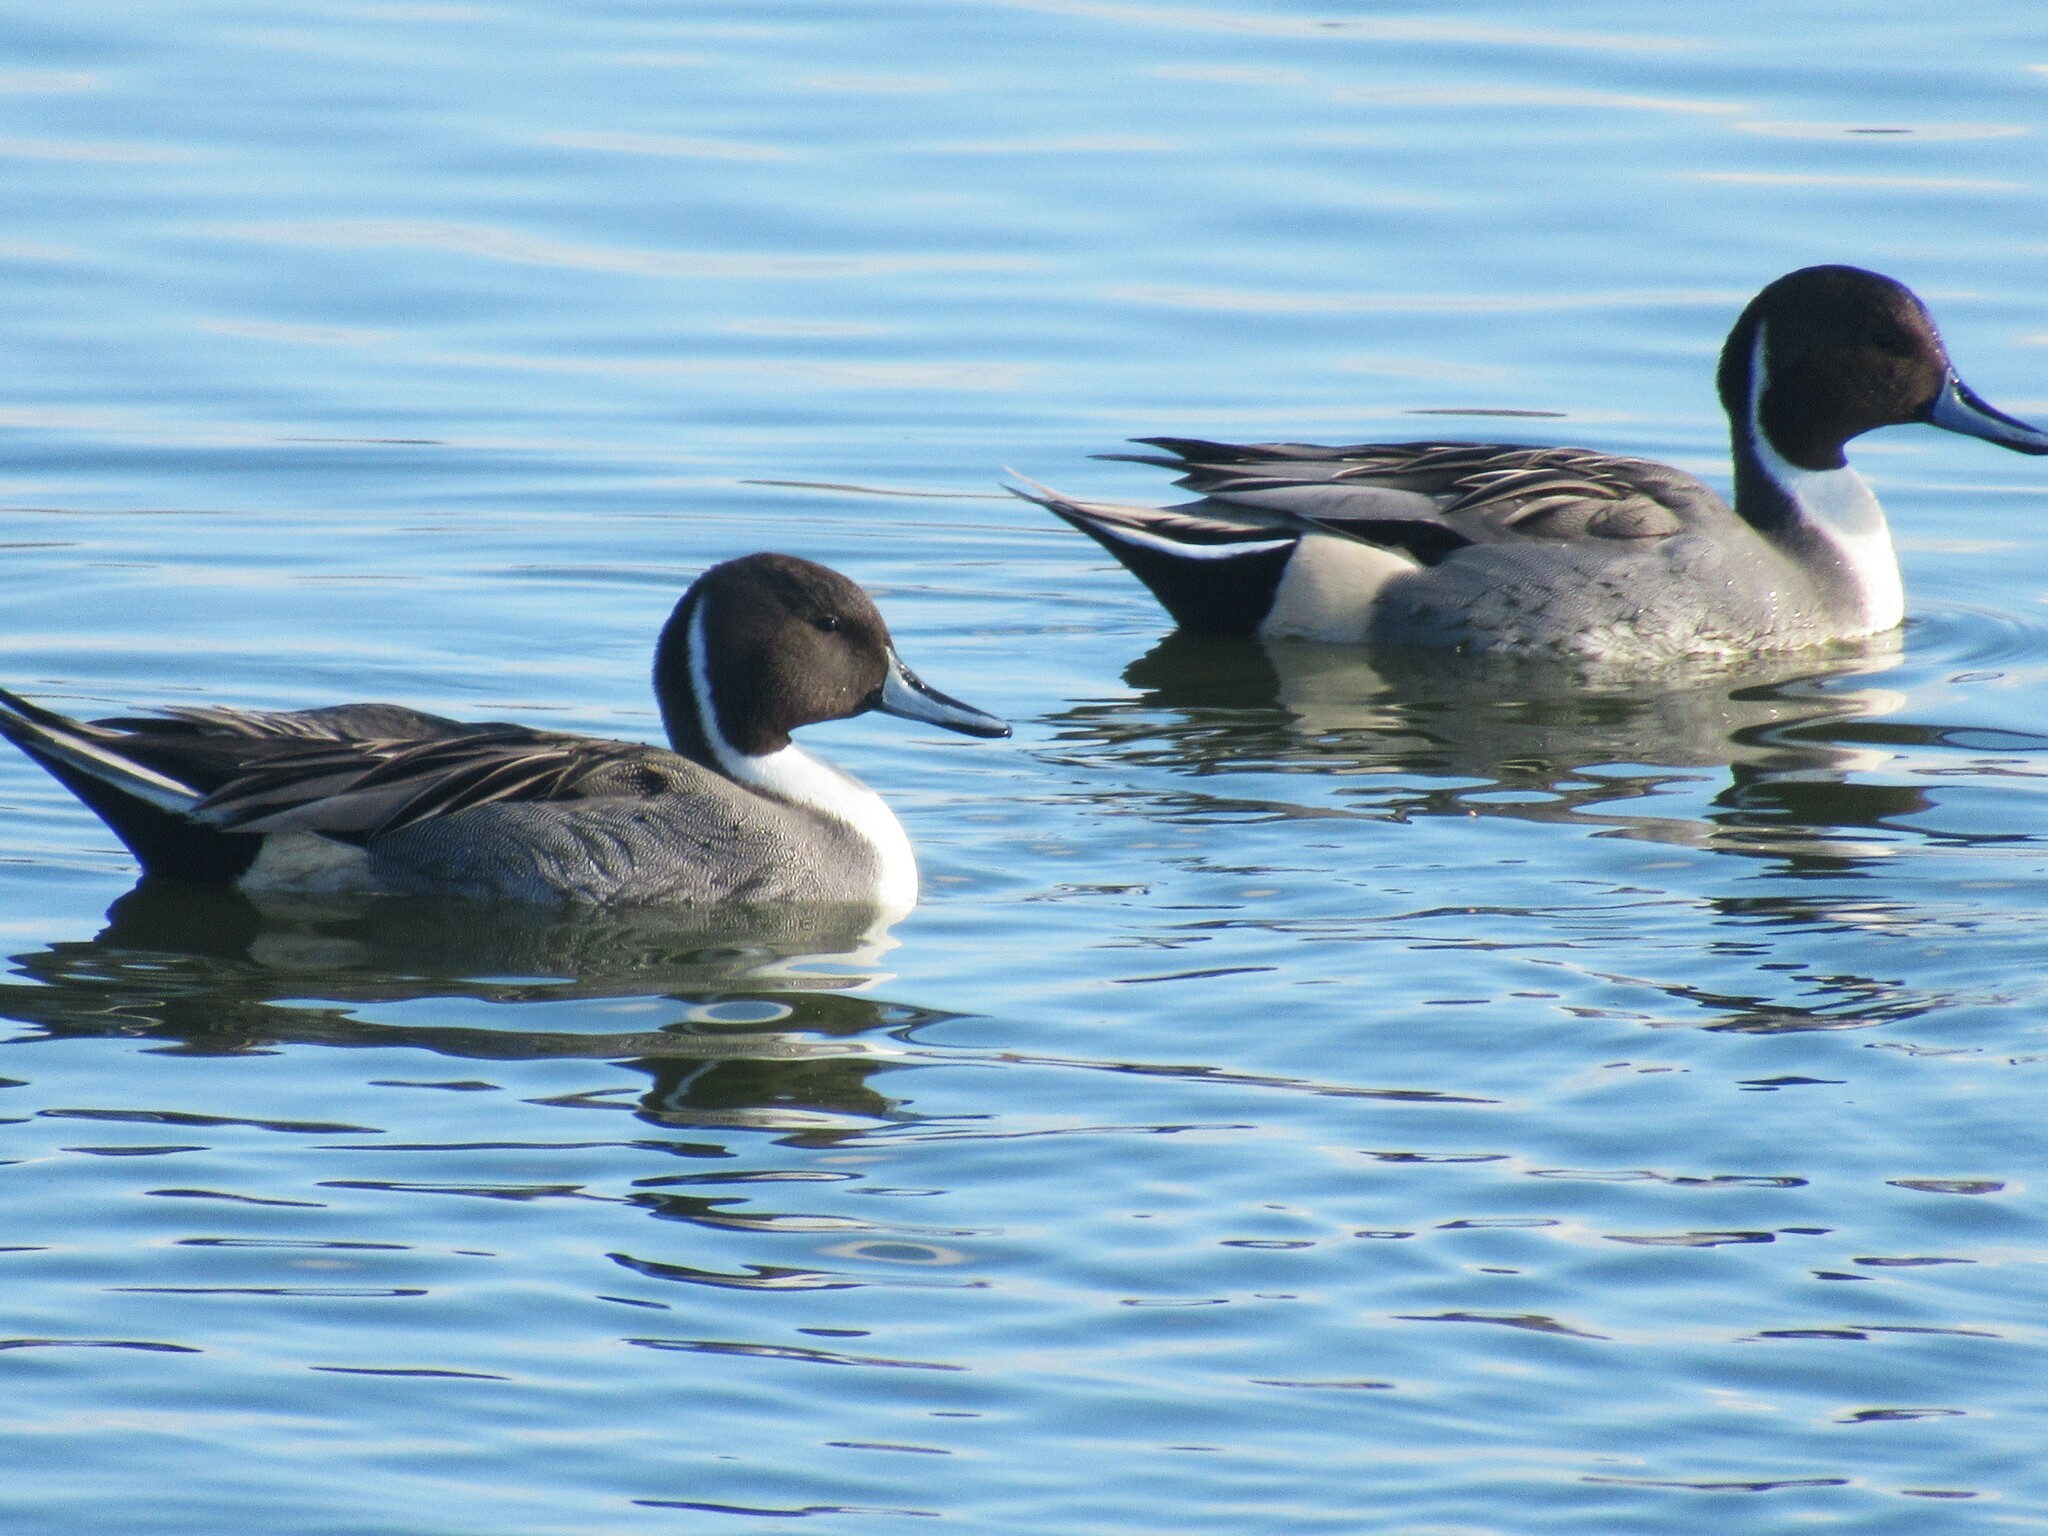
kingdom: Animalia
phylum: Chordata
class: Aves
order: Anseriformes
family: Anatidae
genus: Anas
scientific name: Anas acuta
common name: Northern pintail
